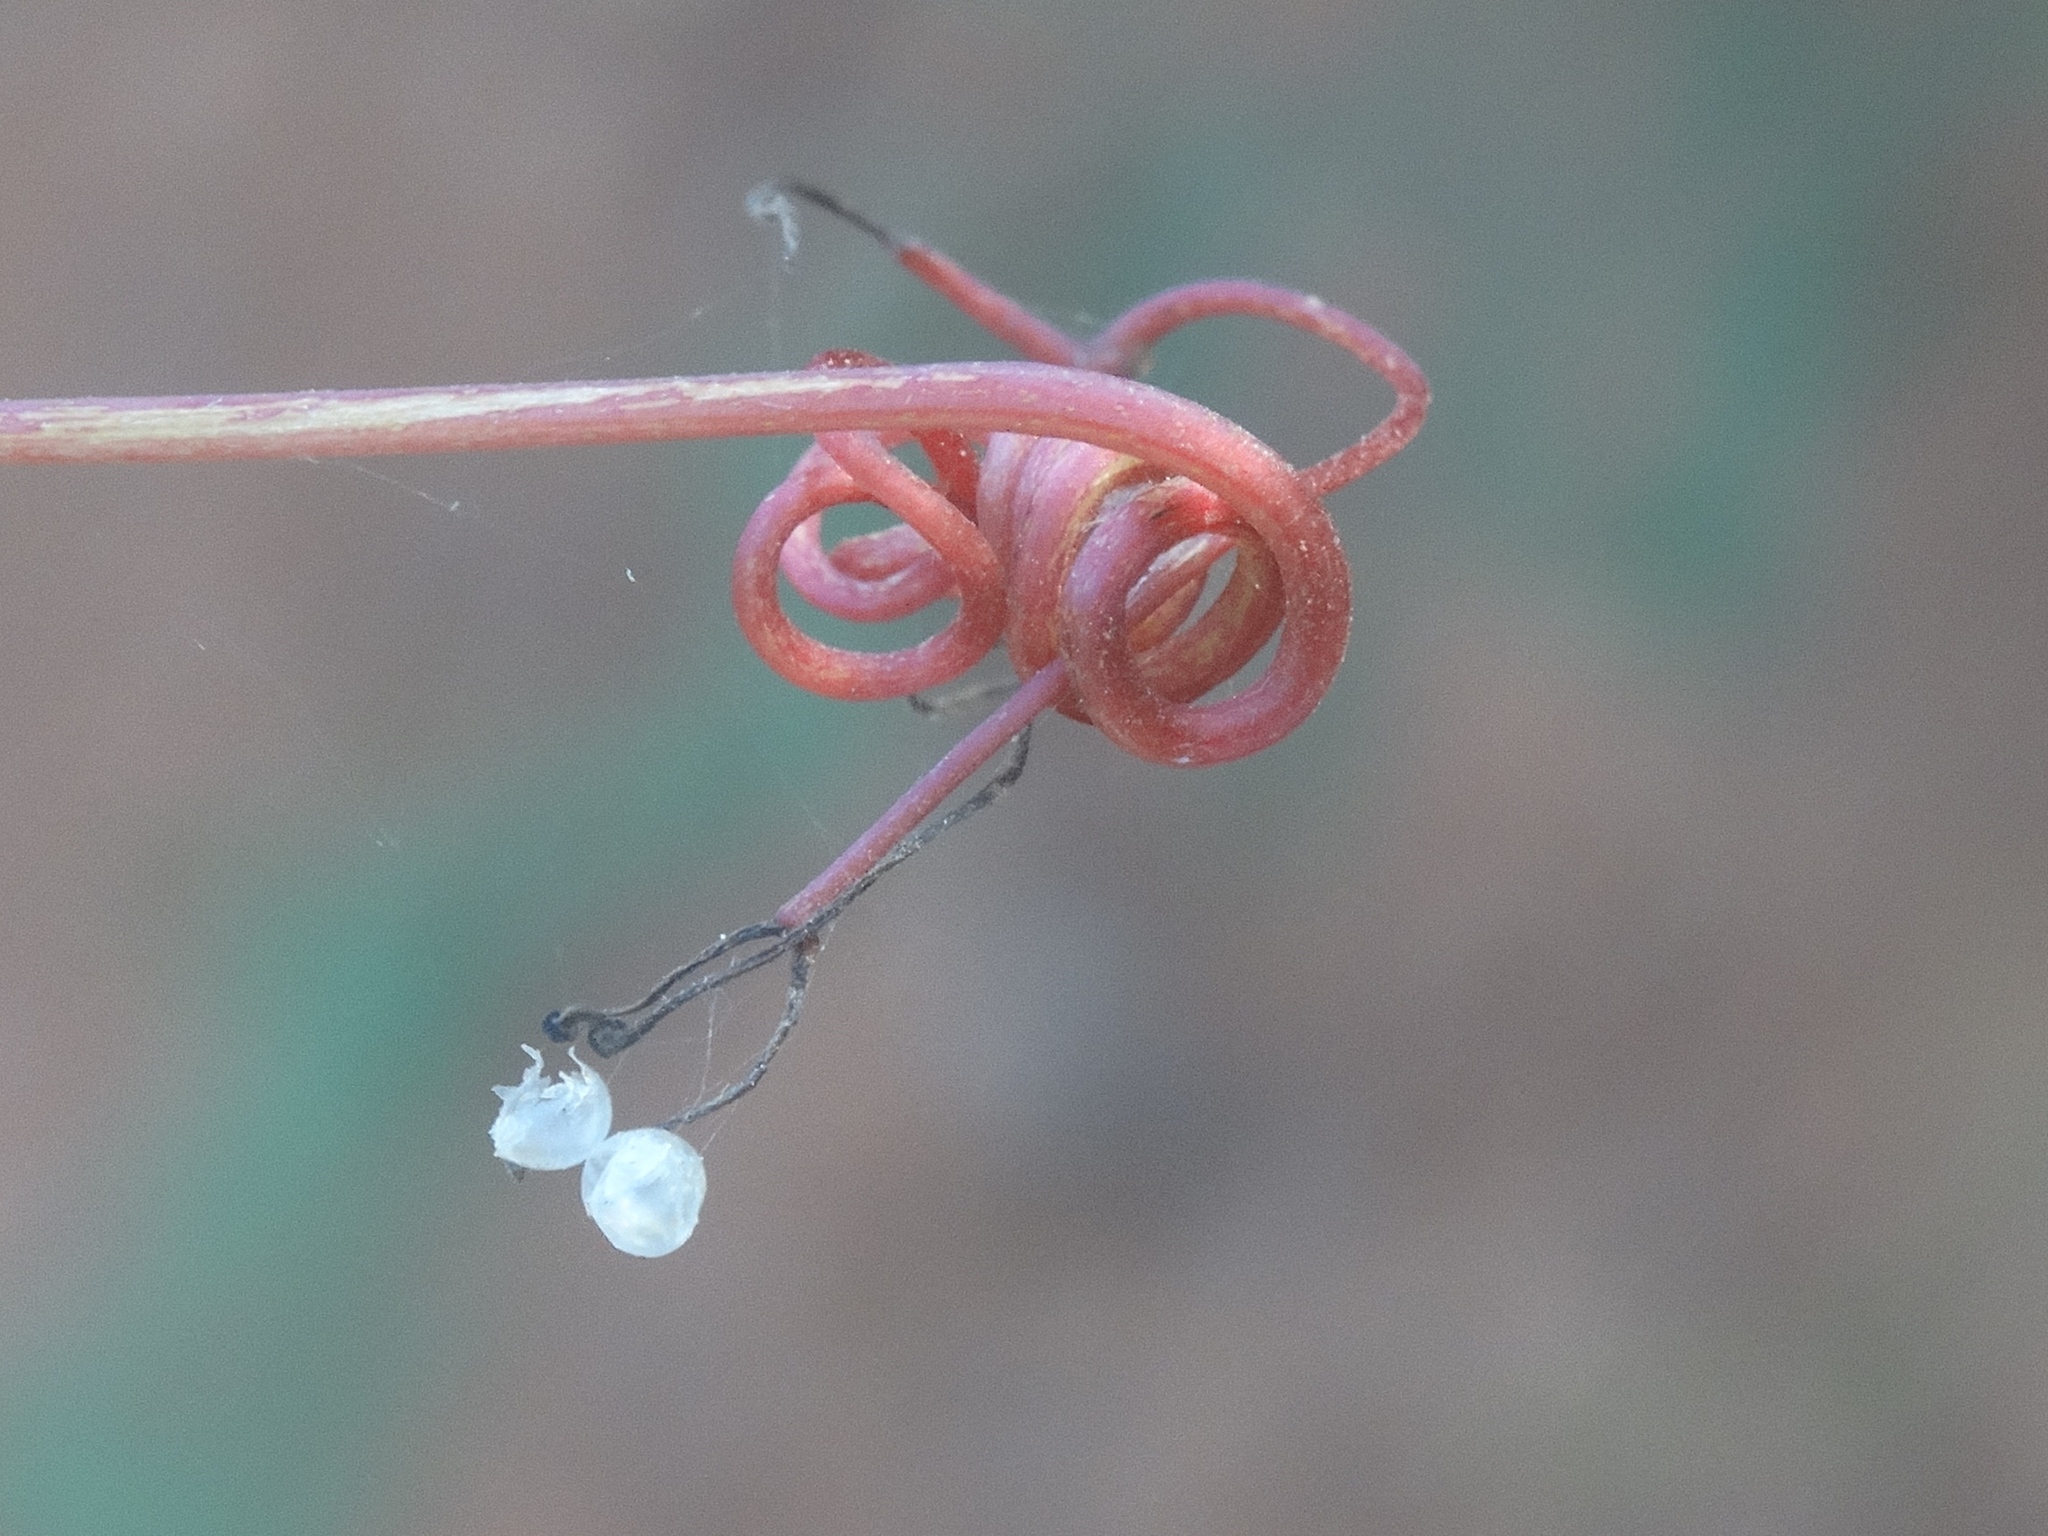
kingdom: Plantae
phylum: Tracheophyta
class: Magnoliopsida
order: Vitales
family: Vitaceae
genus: Parthenocissus
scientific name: Parthenocissus quinquefolia
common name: Virginia-creeper
